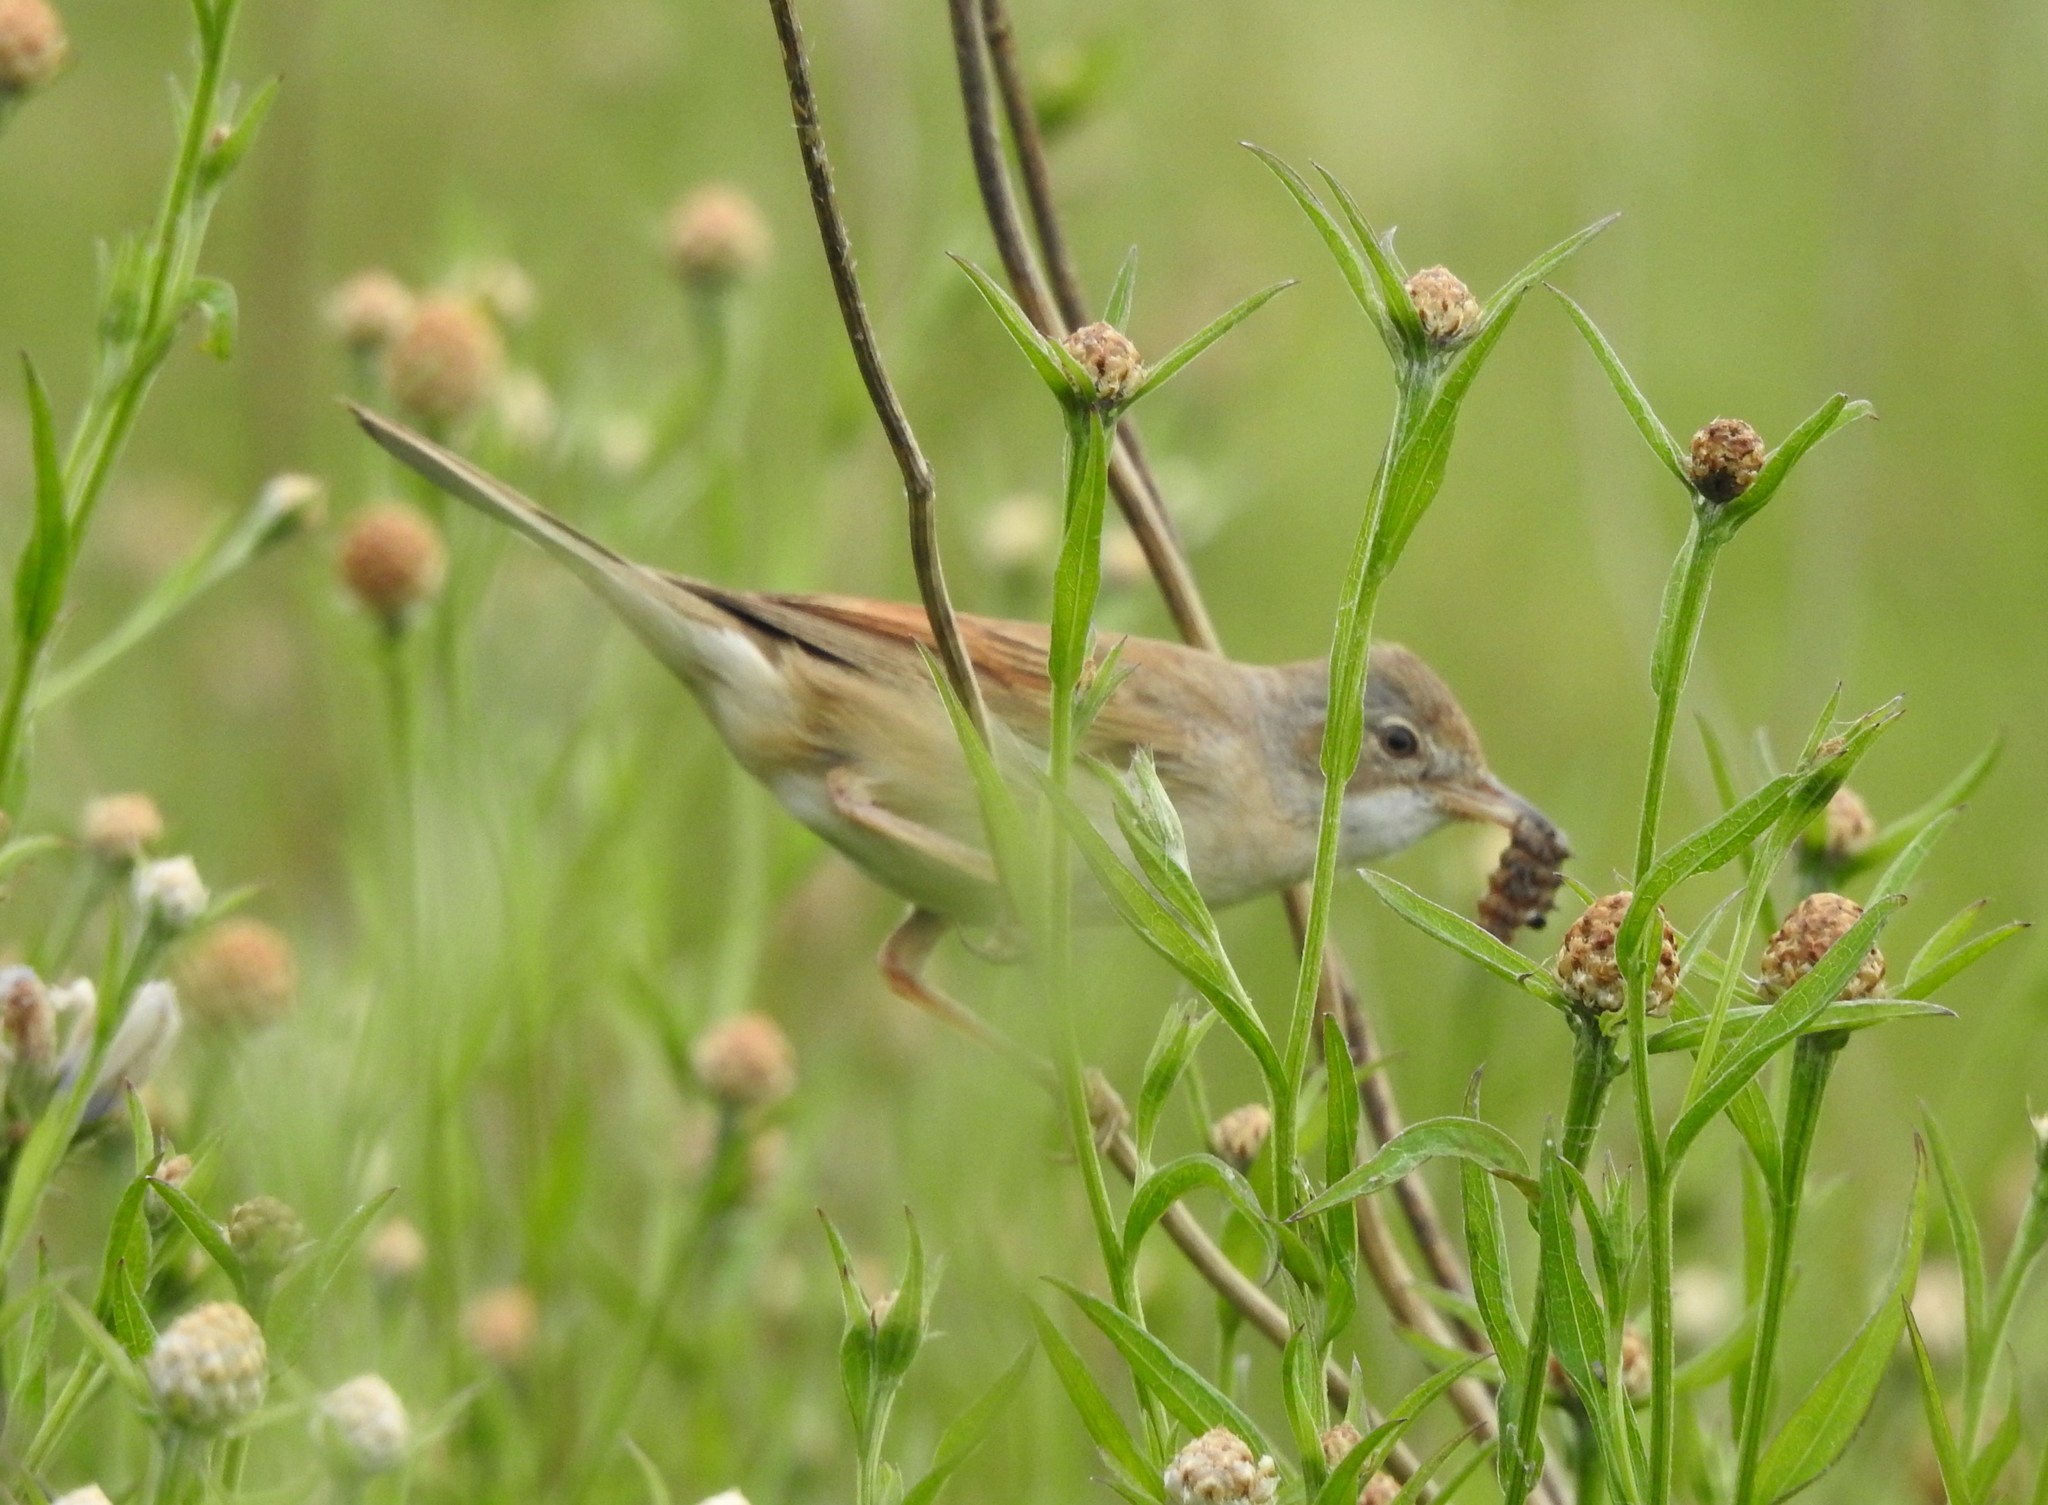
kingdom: Animalia
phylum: Chordata
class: Aves
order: Passeriformes
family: Sylviidae
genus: Sylvia
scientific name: Sylvia communis
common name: Common whitethroat
